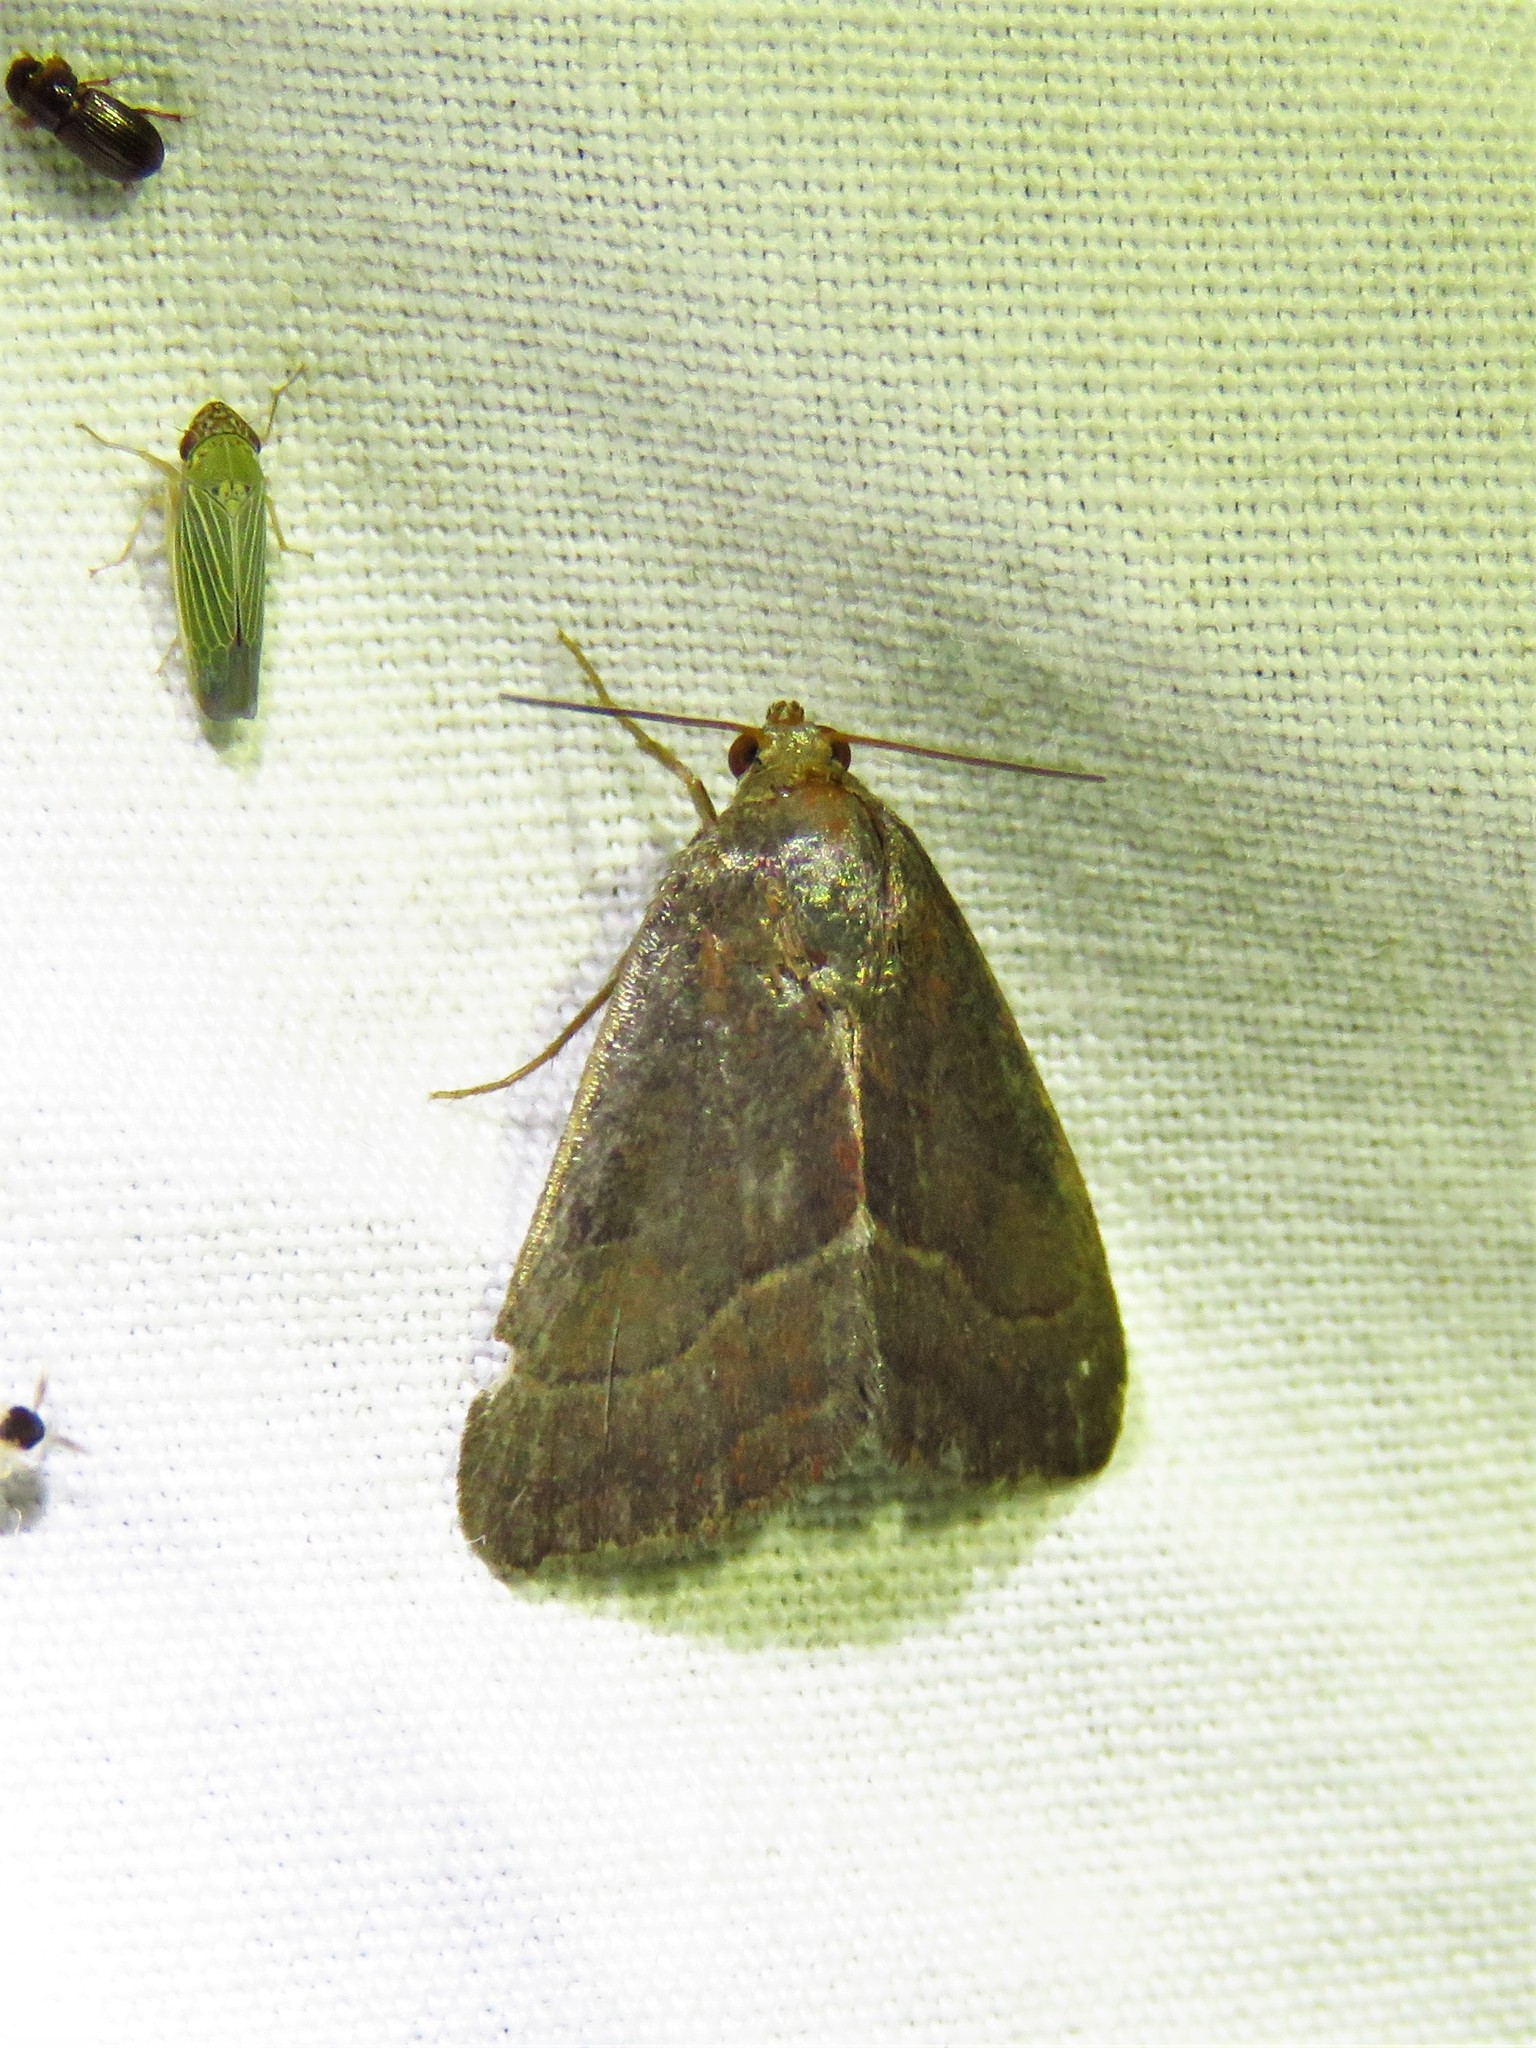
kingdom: Animalia
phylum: Arthropoda
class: Insecta
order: Lepidoptera
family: Noctuidae
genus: Galgula
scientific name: Galgula partita
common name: Wedgeling
